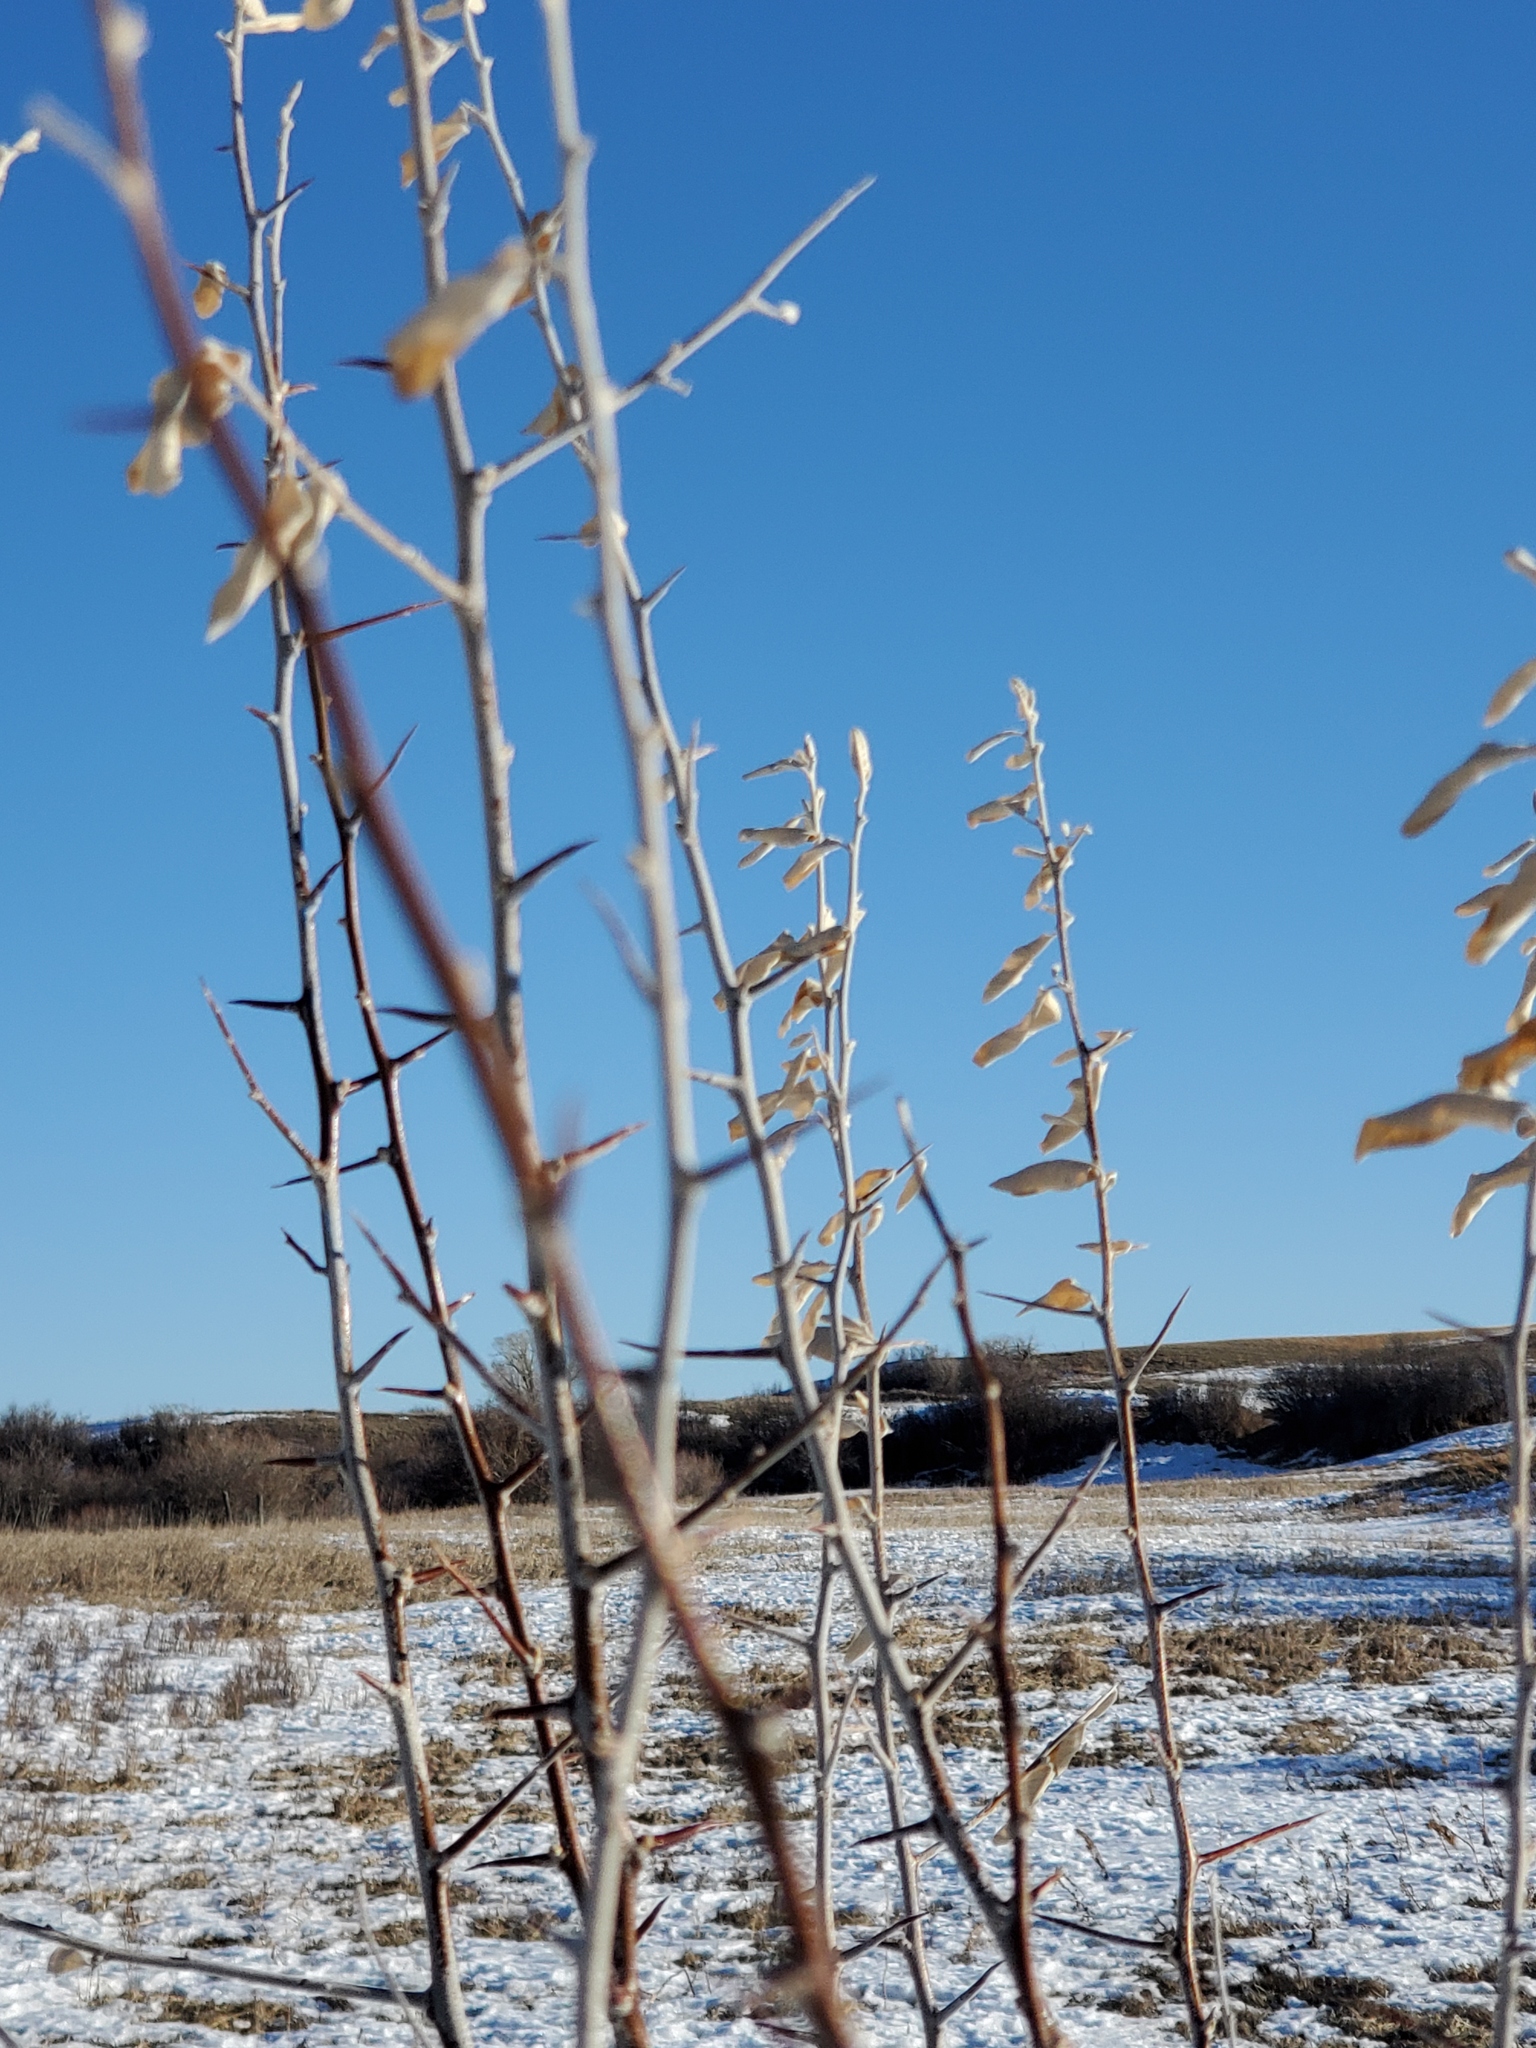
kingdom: Plantae
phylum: Tracheophyta
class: Magnoliopsida
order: Rosales
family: Elaeagnaceae
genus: Elaeagnus
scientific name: Elaeagnus angustifolia
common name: Russian olive
